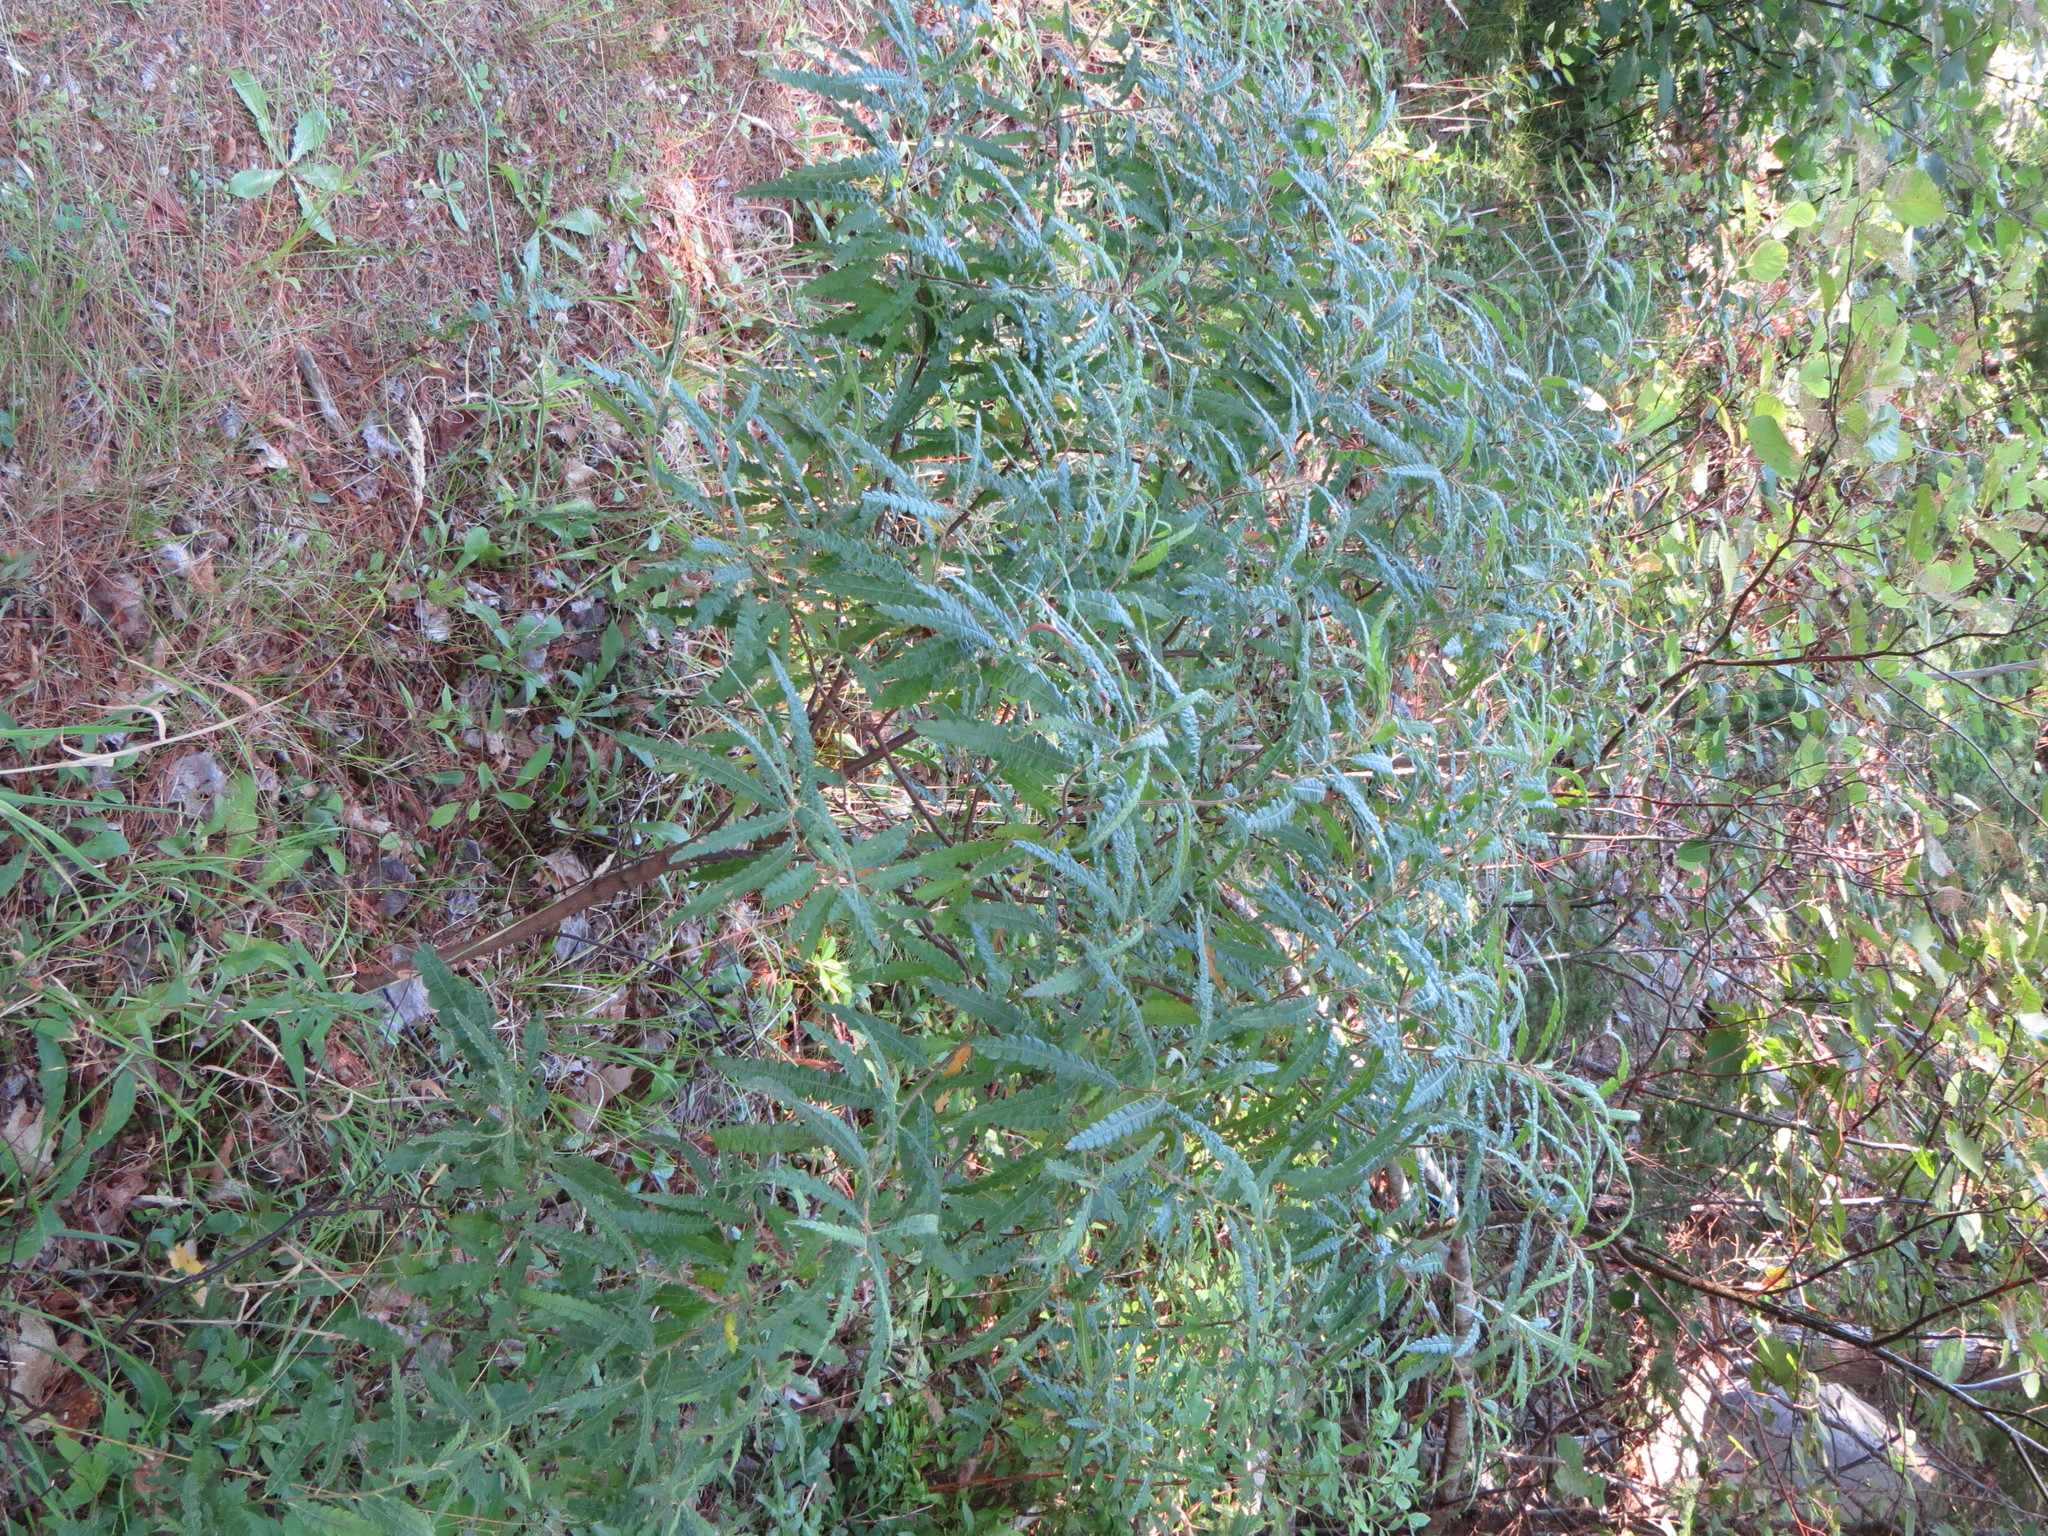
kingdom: Plantae
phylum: Tracheophyta
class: Magnoliopsida
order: Fagales
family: Myricaceae
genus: Comptonia
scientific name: Comptonia peregrina
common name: Sweet-fern
